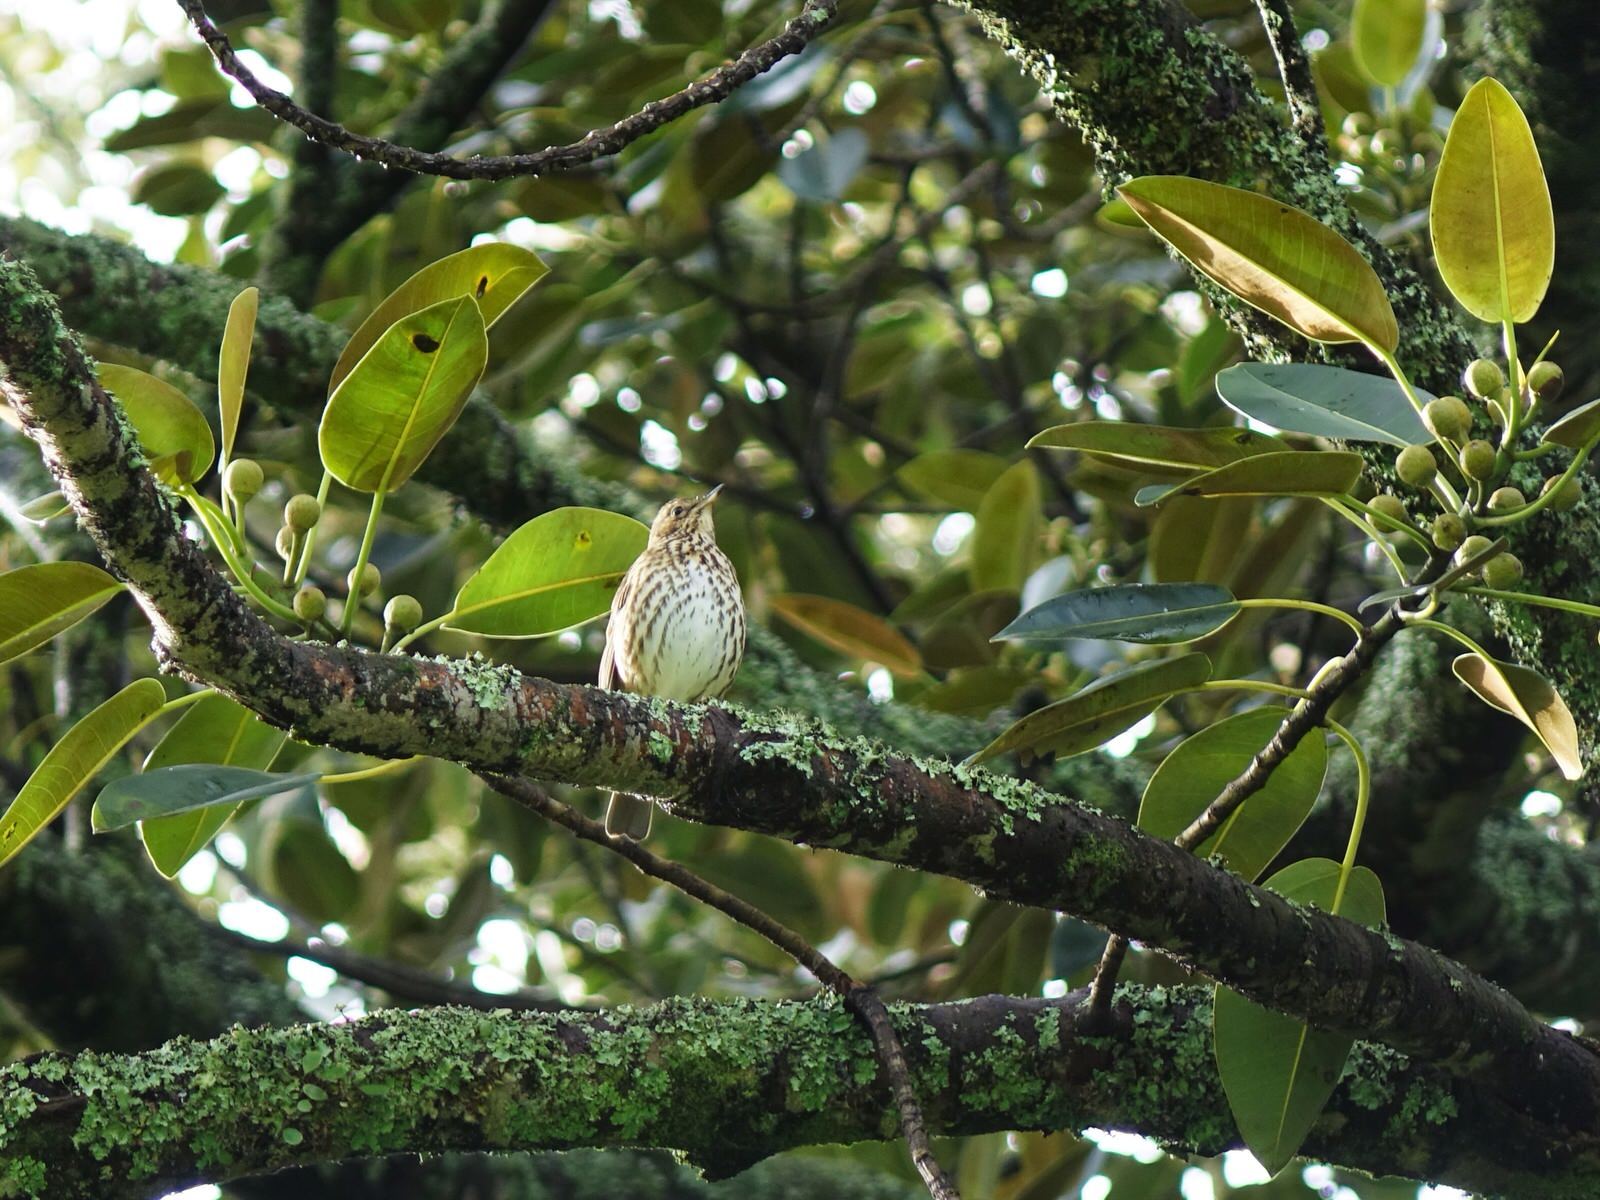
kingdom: Animalia
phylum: Chordata
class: Aves
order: Passeriformes
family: Turdidae
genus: Turdus
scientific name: Turdus philomelos
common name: Song thrush
